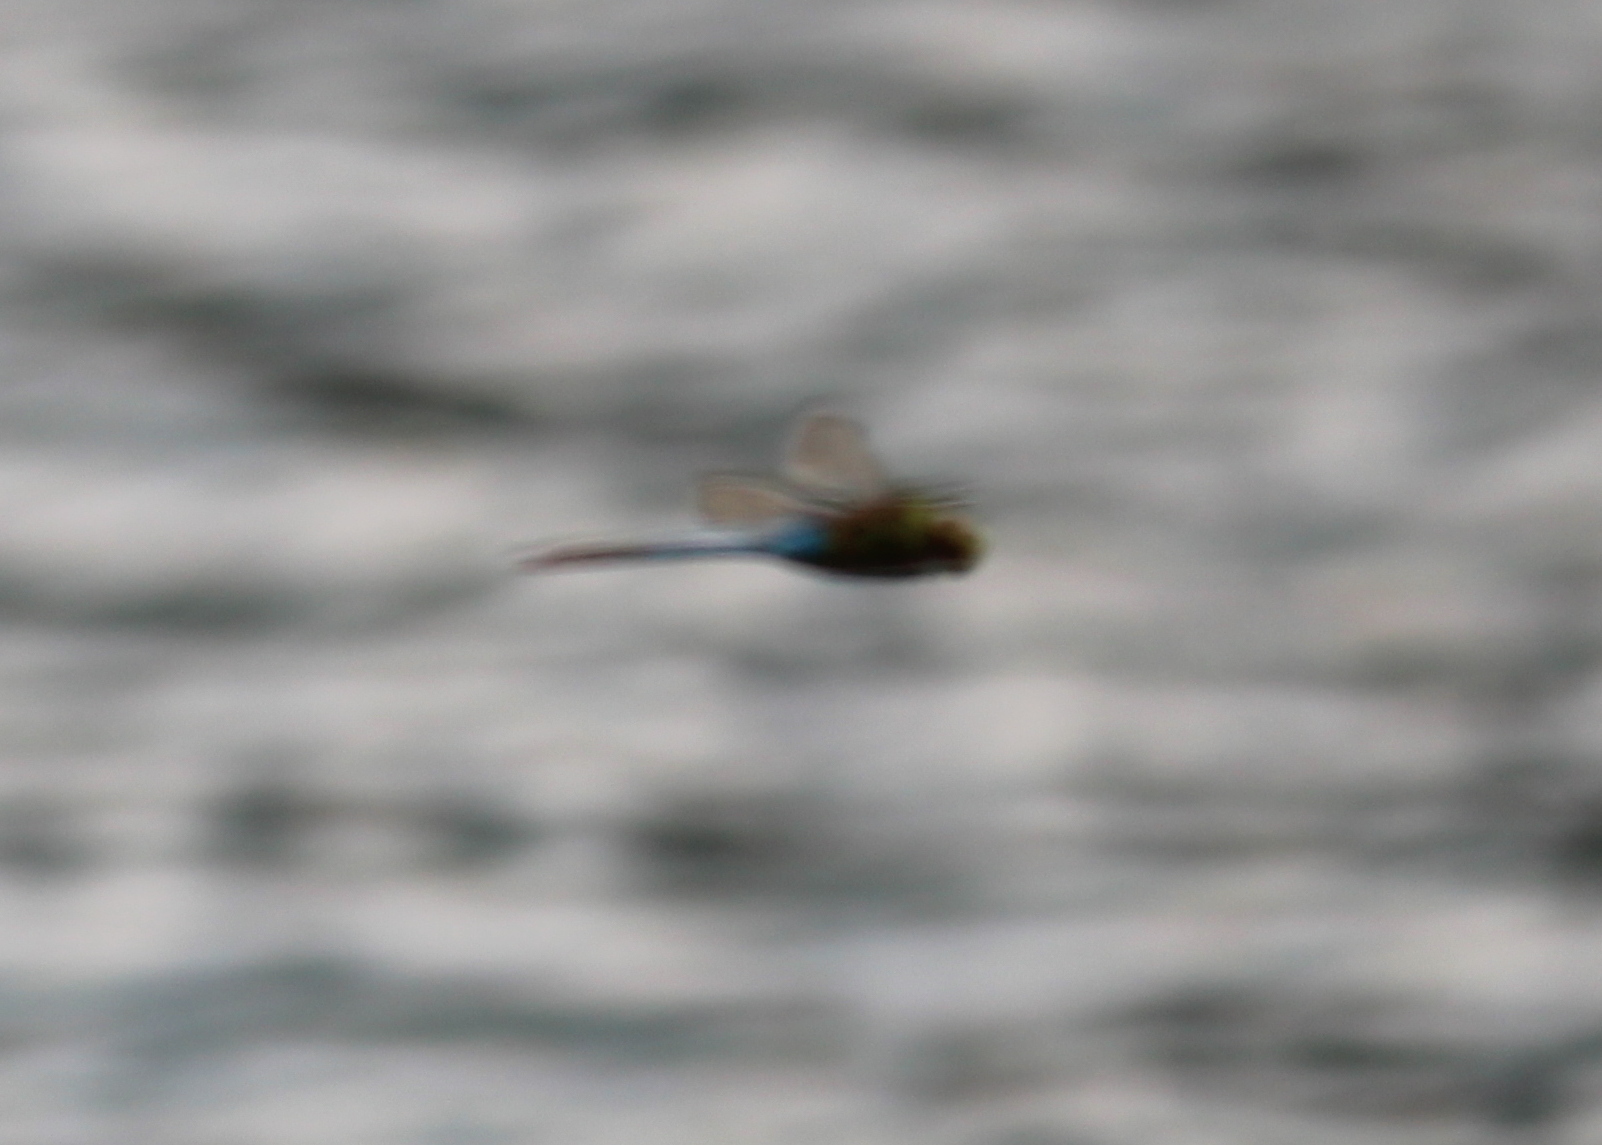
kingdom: Animalia
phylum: Arthropoda
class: Insecta
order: Odonata
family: Aeshnidae
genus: Anax
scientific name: Anax junius
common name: Common green darner
